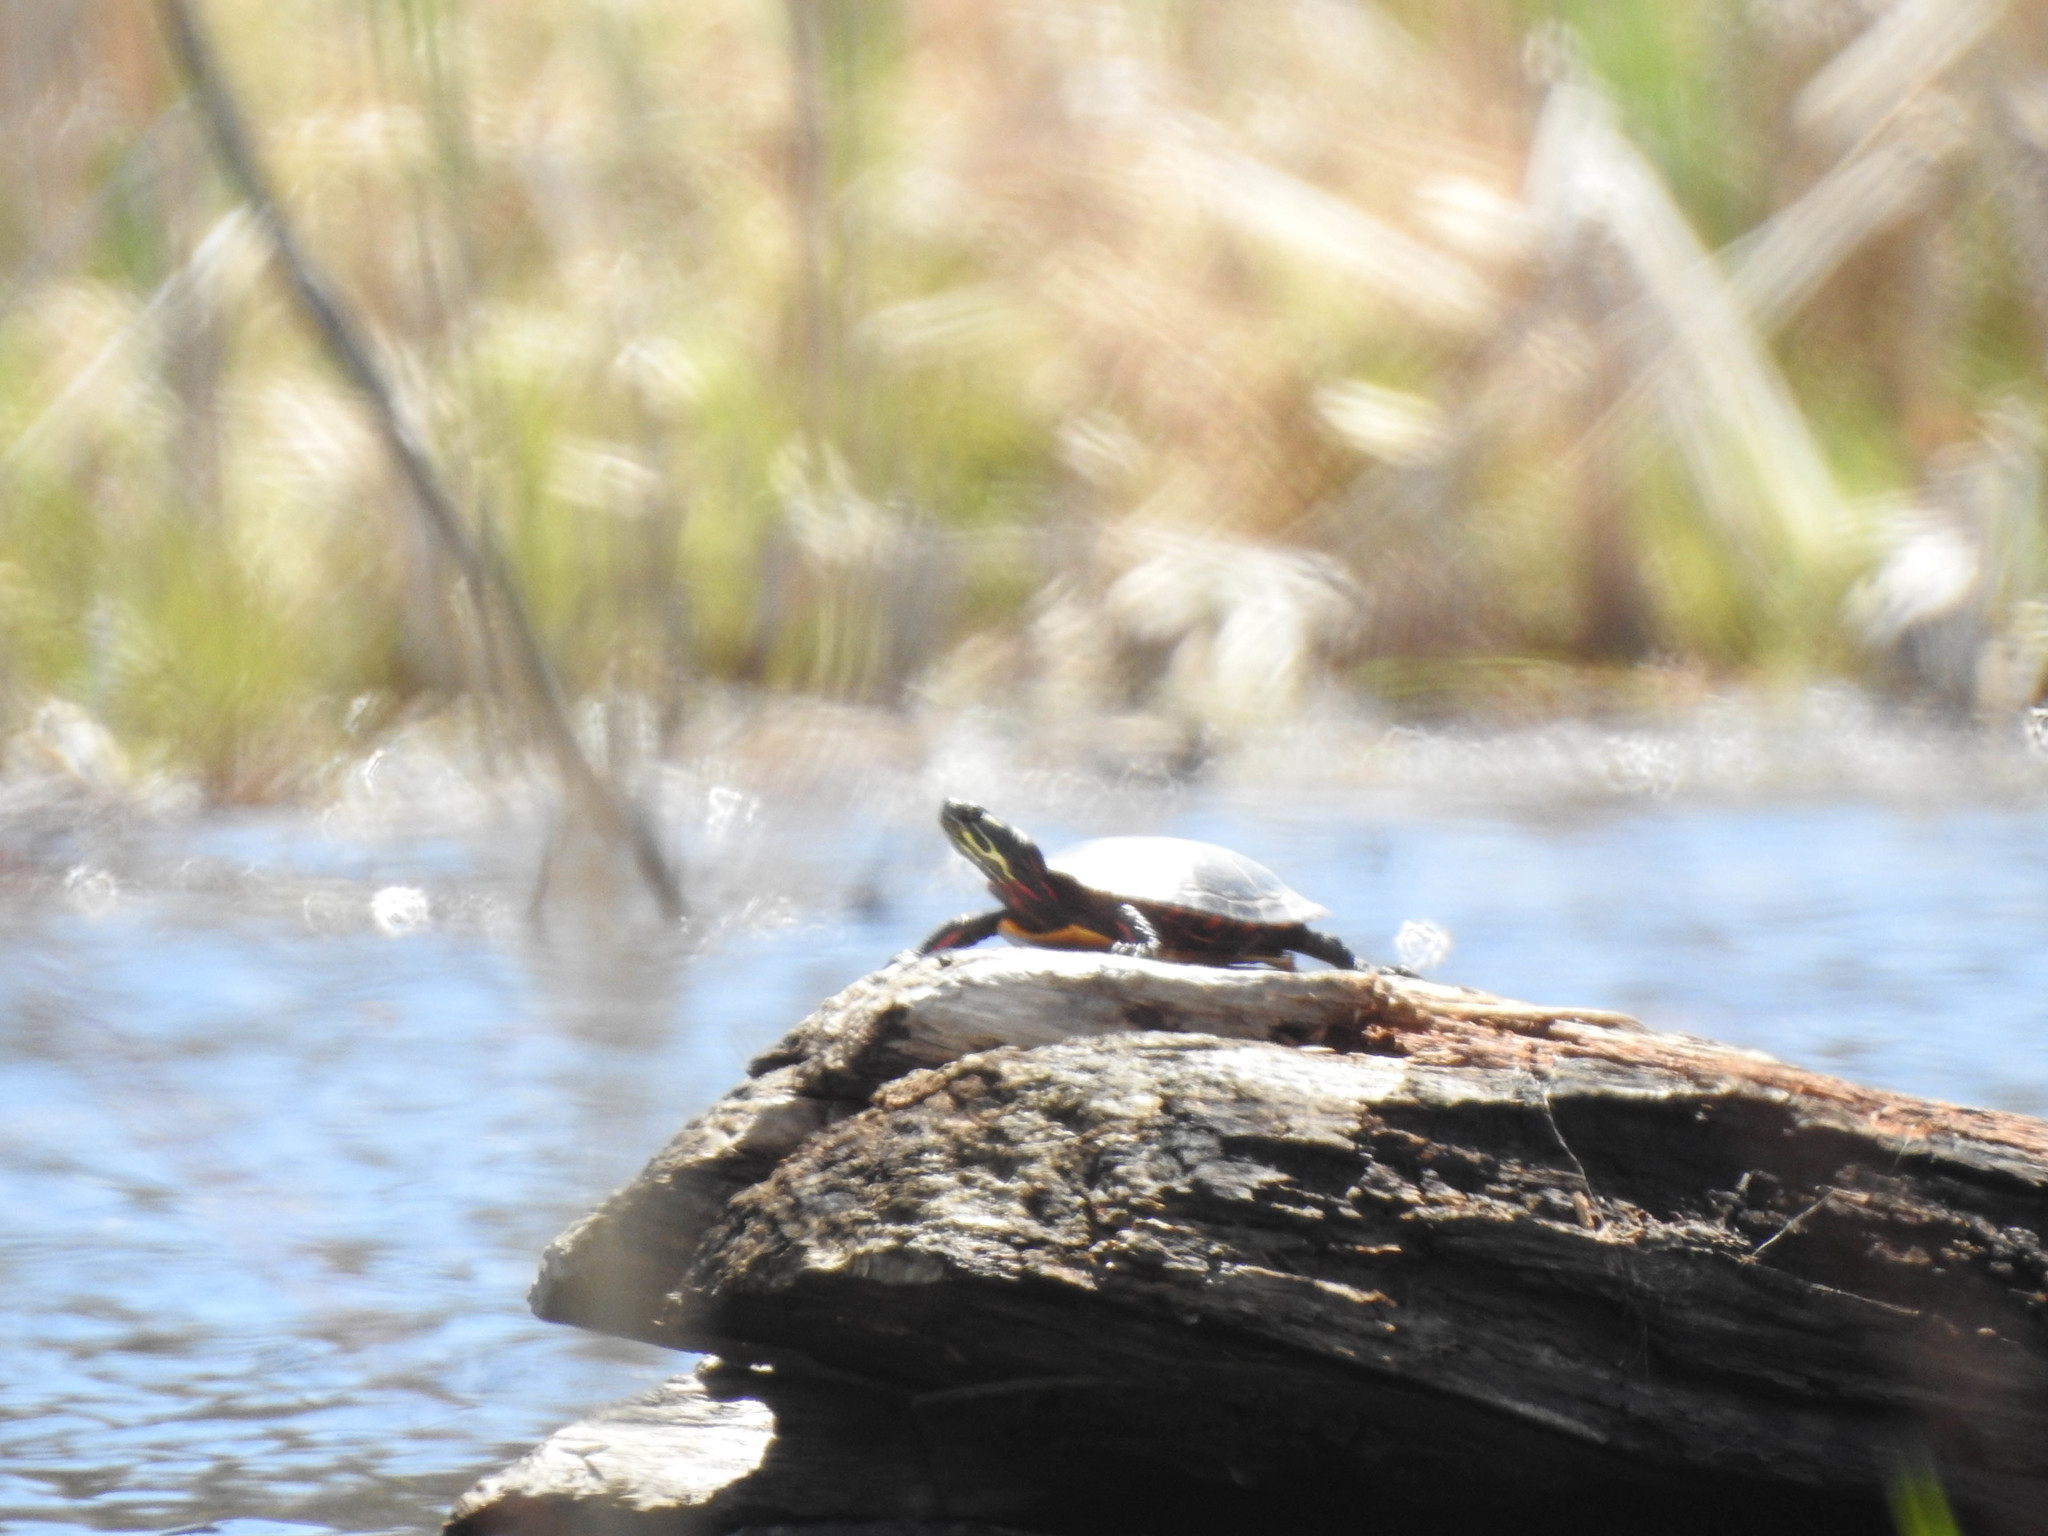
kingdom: Animalia
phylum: Chordata
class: Testudines
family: Emydidae
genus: Chrysemys
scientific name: Chrysemys picta
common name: Painted turtle
